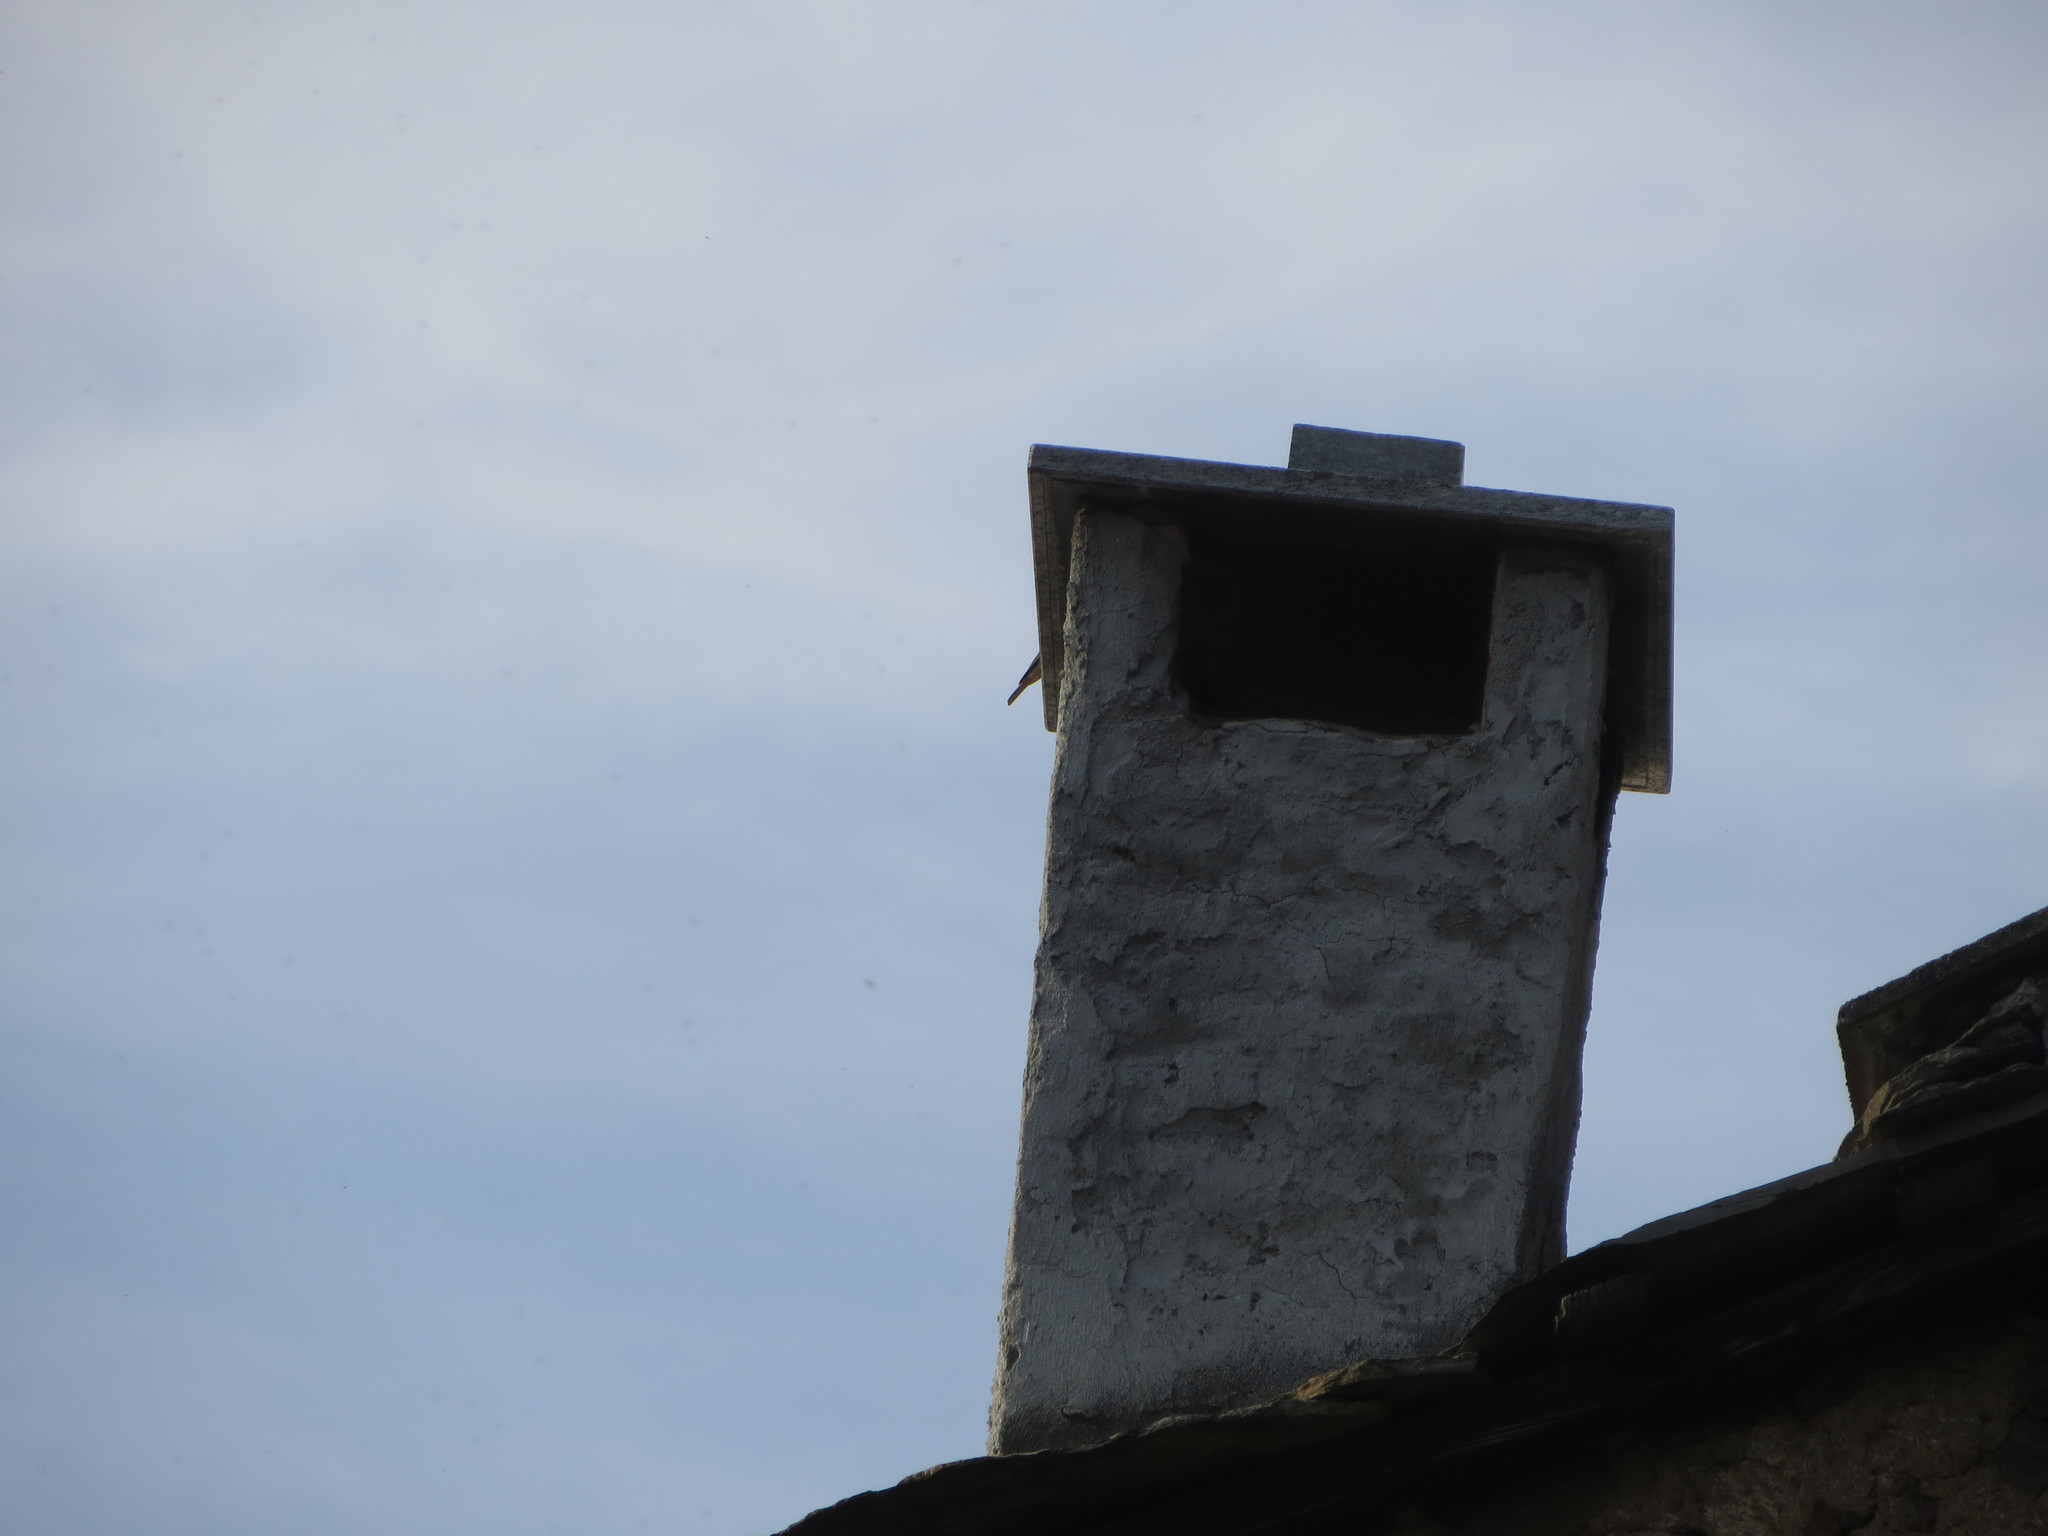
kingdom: Animalia
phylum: Chordata
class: Aves
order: Passeriformes
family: Muscicapidae
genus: Phoenicurus
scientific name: Phoenicurus ochruros
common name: Black redstart
